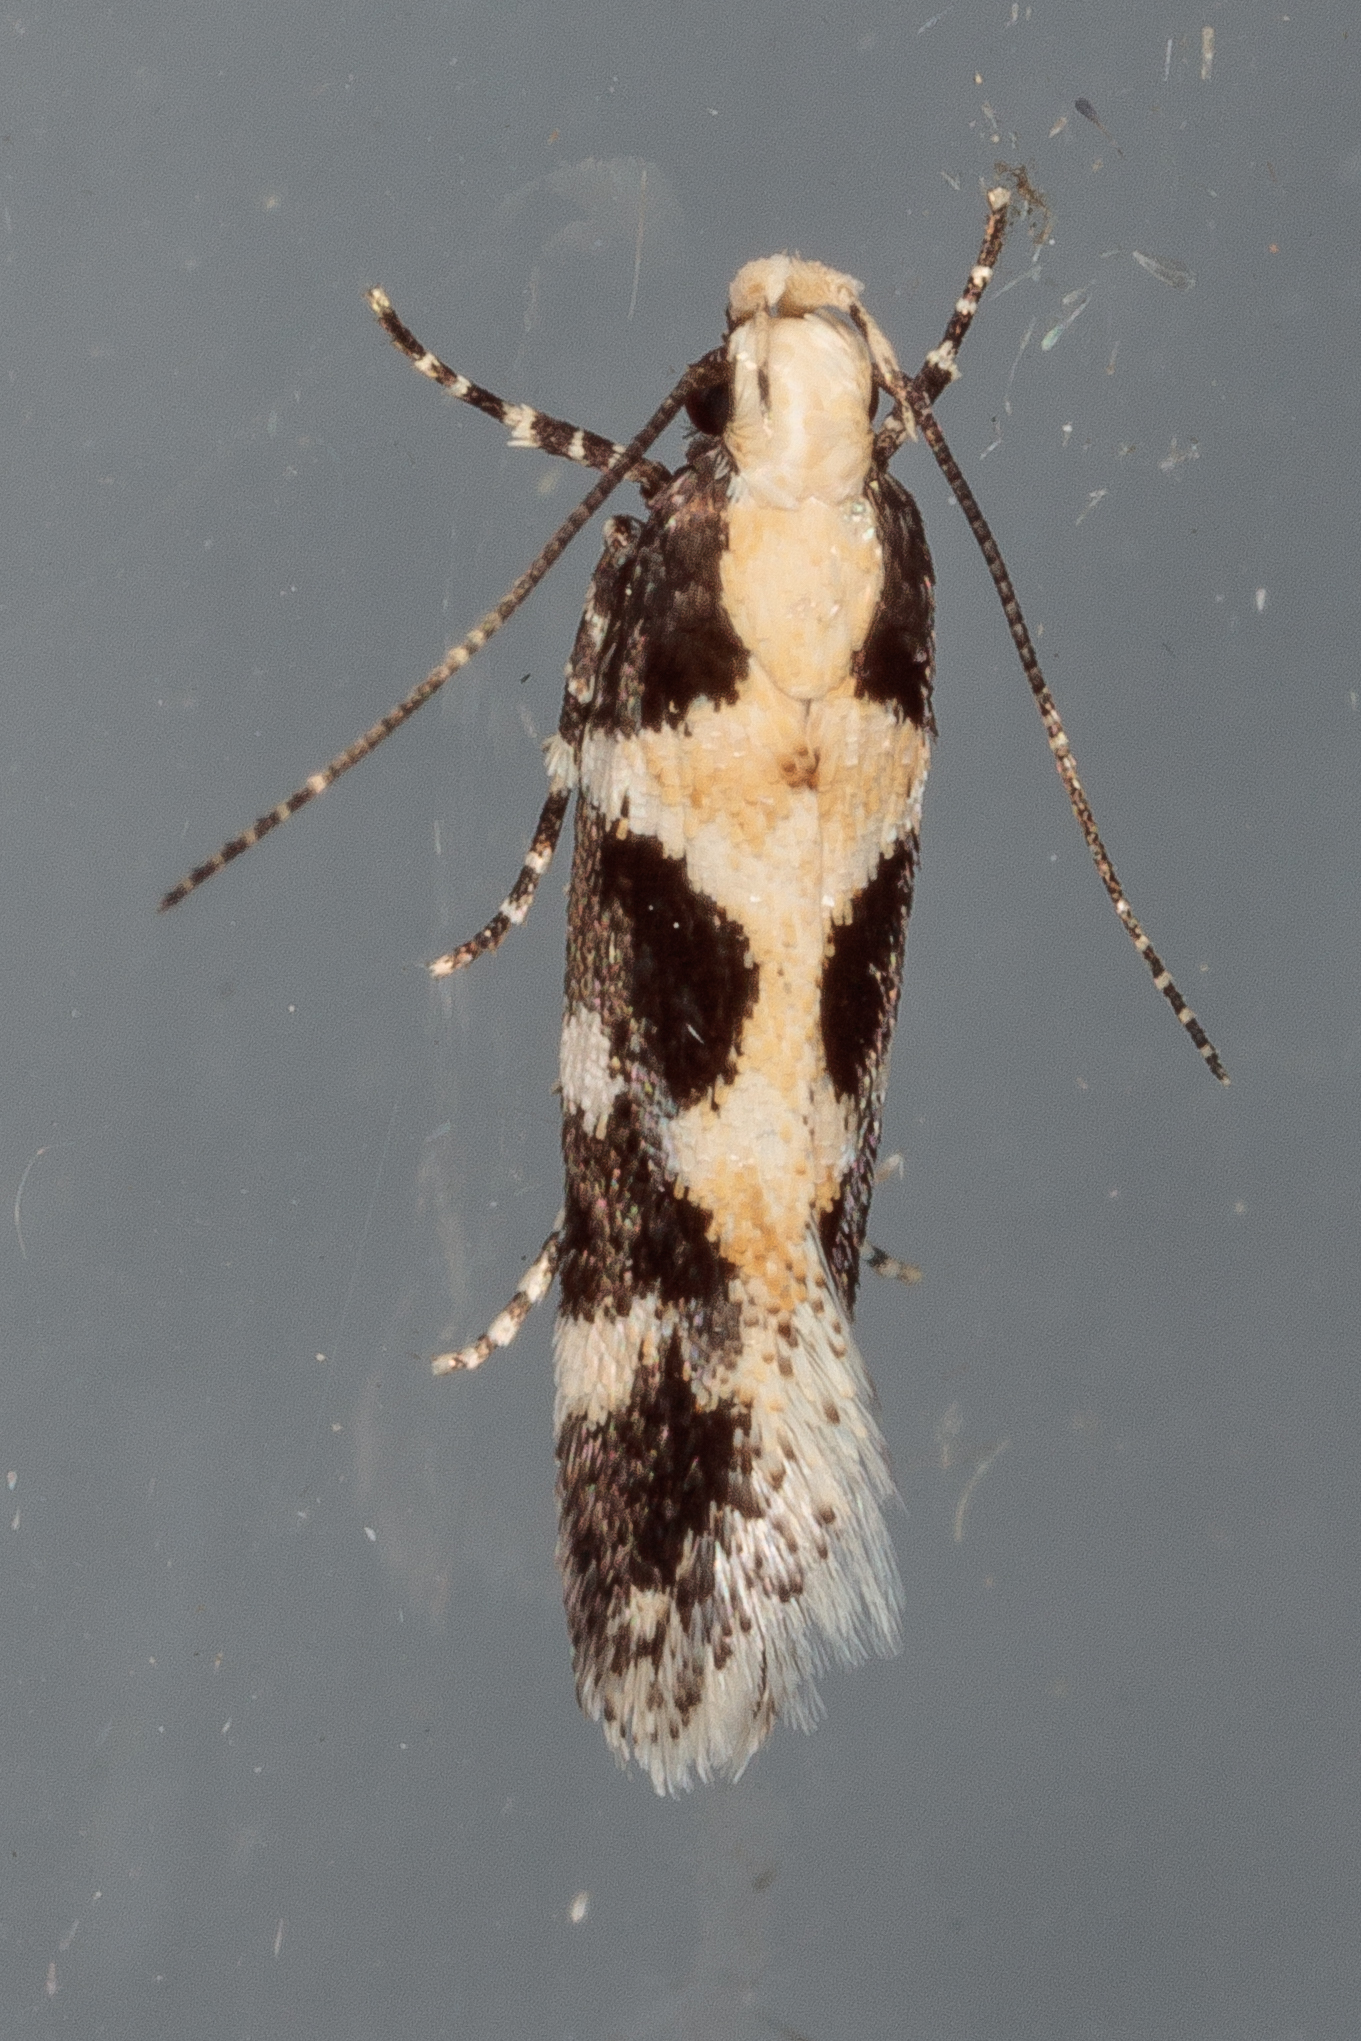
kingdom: Animalia
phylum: Arthropoda
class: Insecta
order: Lepidoptera
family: Gelechiidae
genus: Stegasta
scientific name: Stegasta capitella
